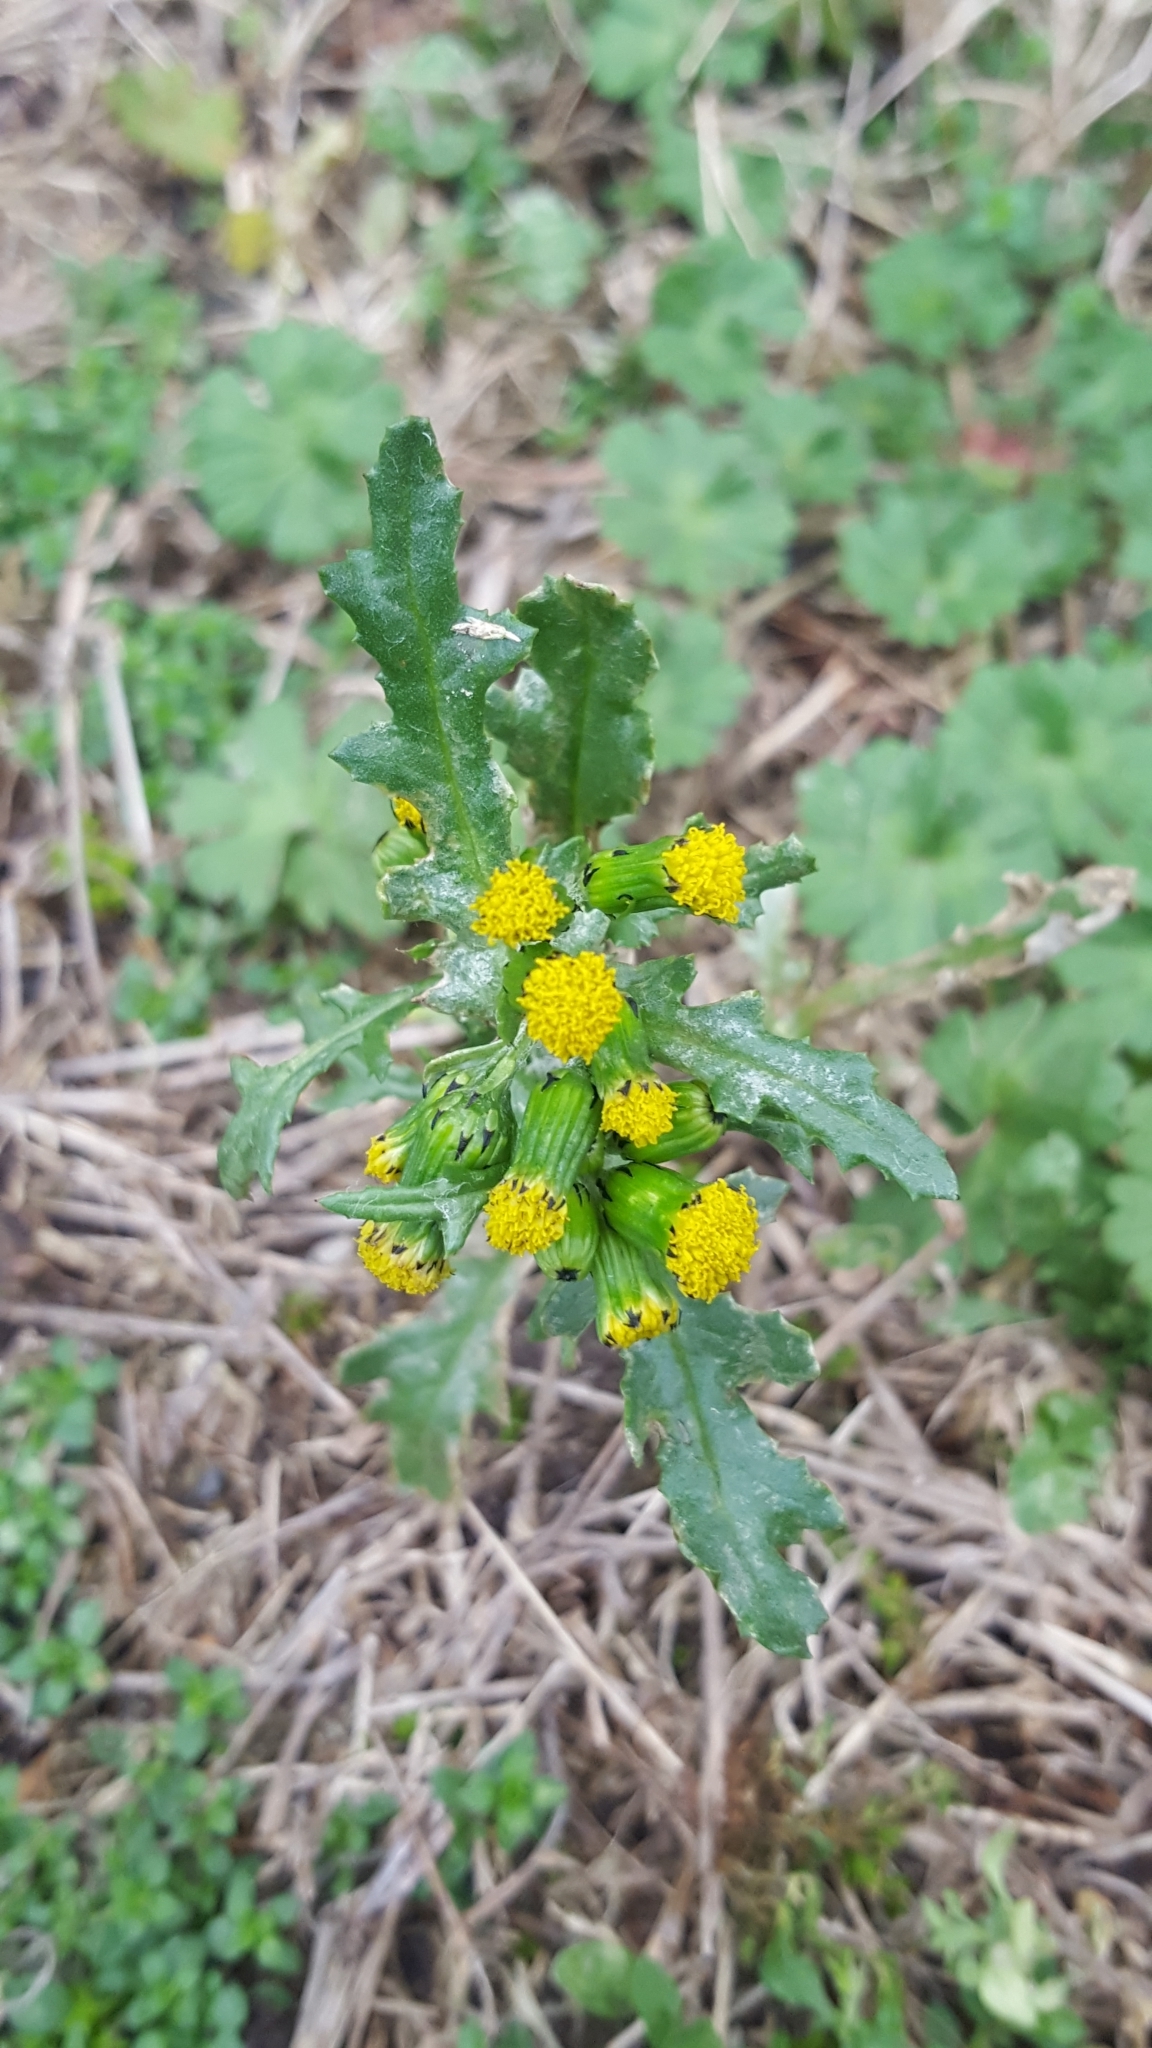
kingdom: Plantae
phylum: Tracheophyta
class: Magnoliopsida
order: Asterales
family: Asteraceae
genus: Senecio
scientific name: Senecio vulgaris
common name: Old-man-in-the-spring
